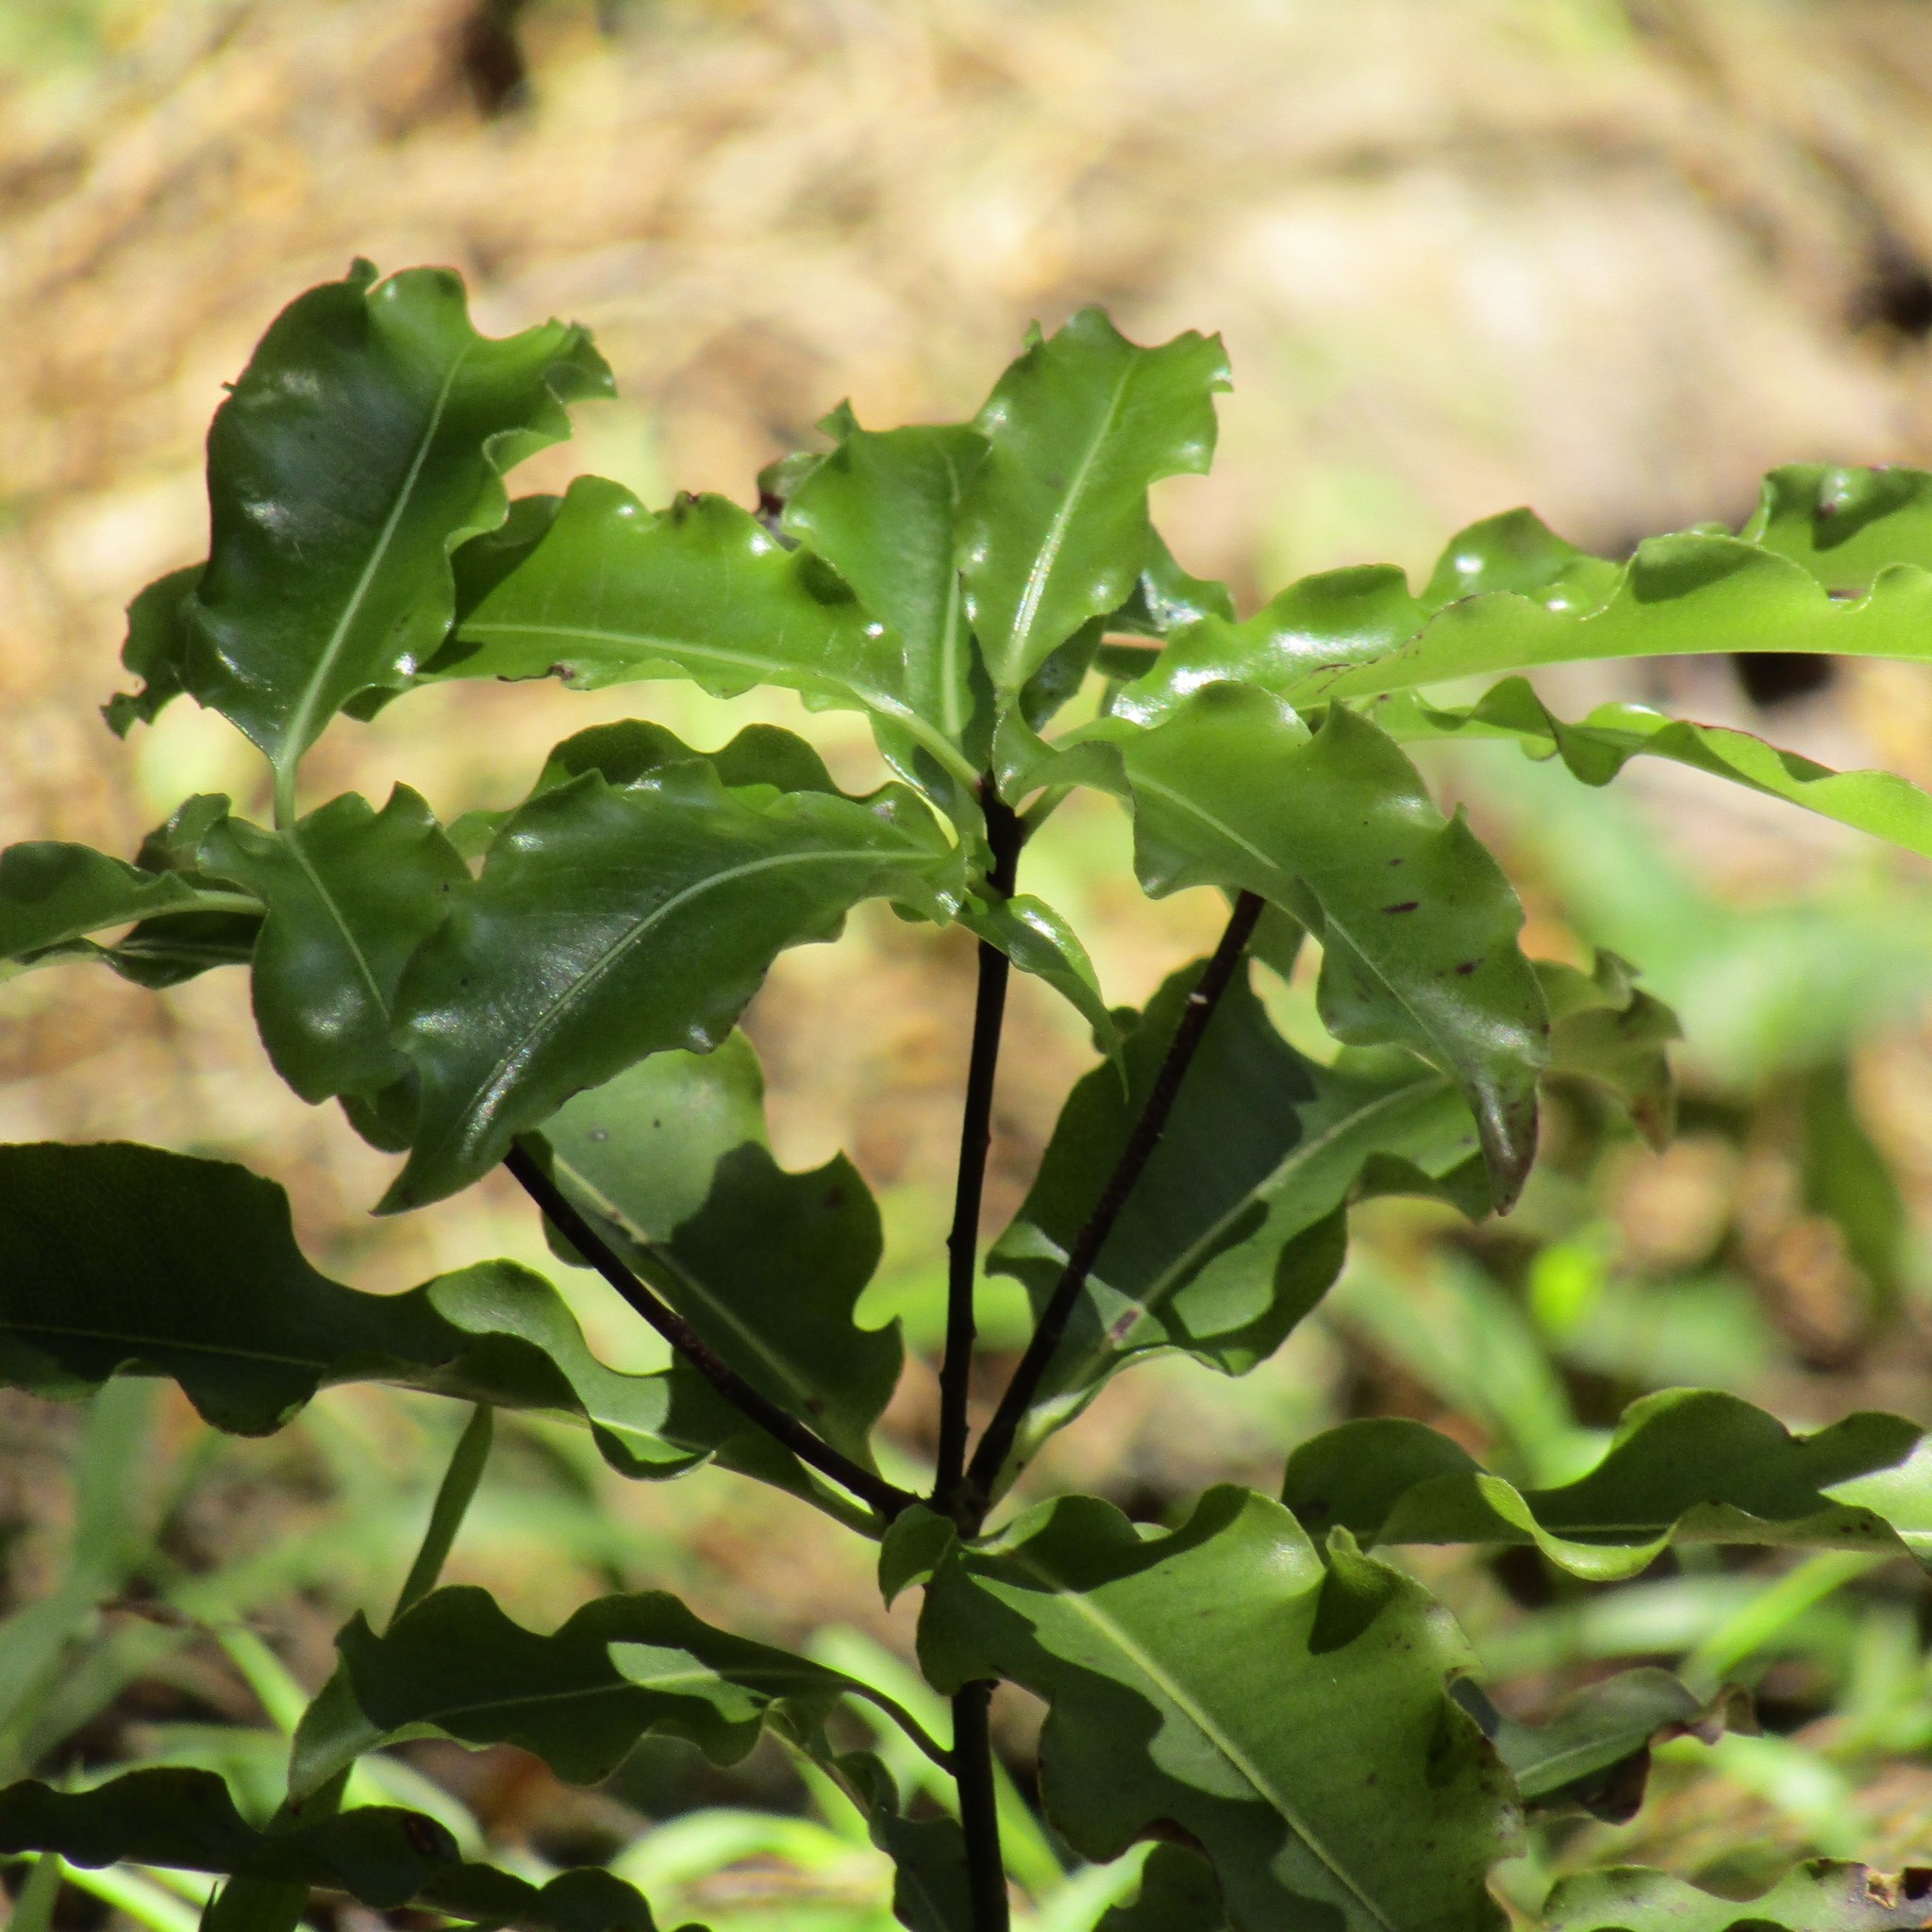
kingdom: Plantae
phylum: Tracheophyta
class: Magnoliopsida
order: Apiales
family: Pittosporaceae
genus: Pittosporum
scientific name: Pittosporum eugenioides
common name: Lemonwood
